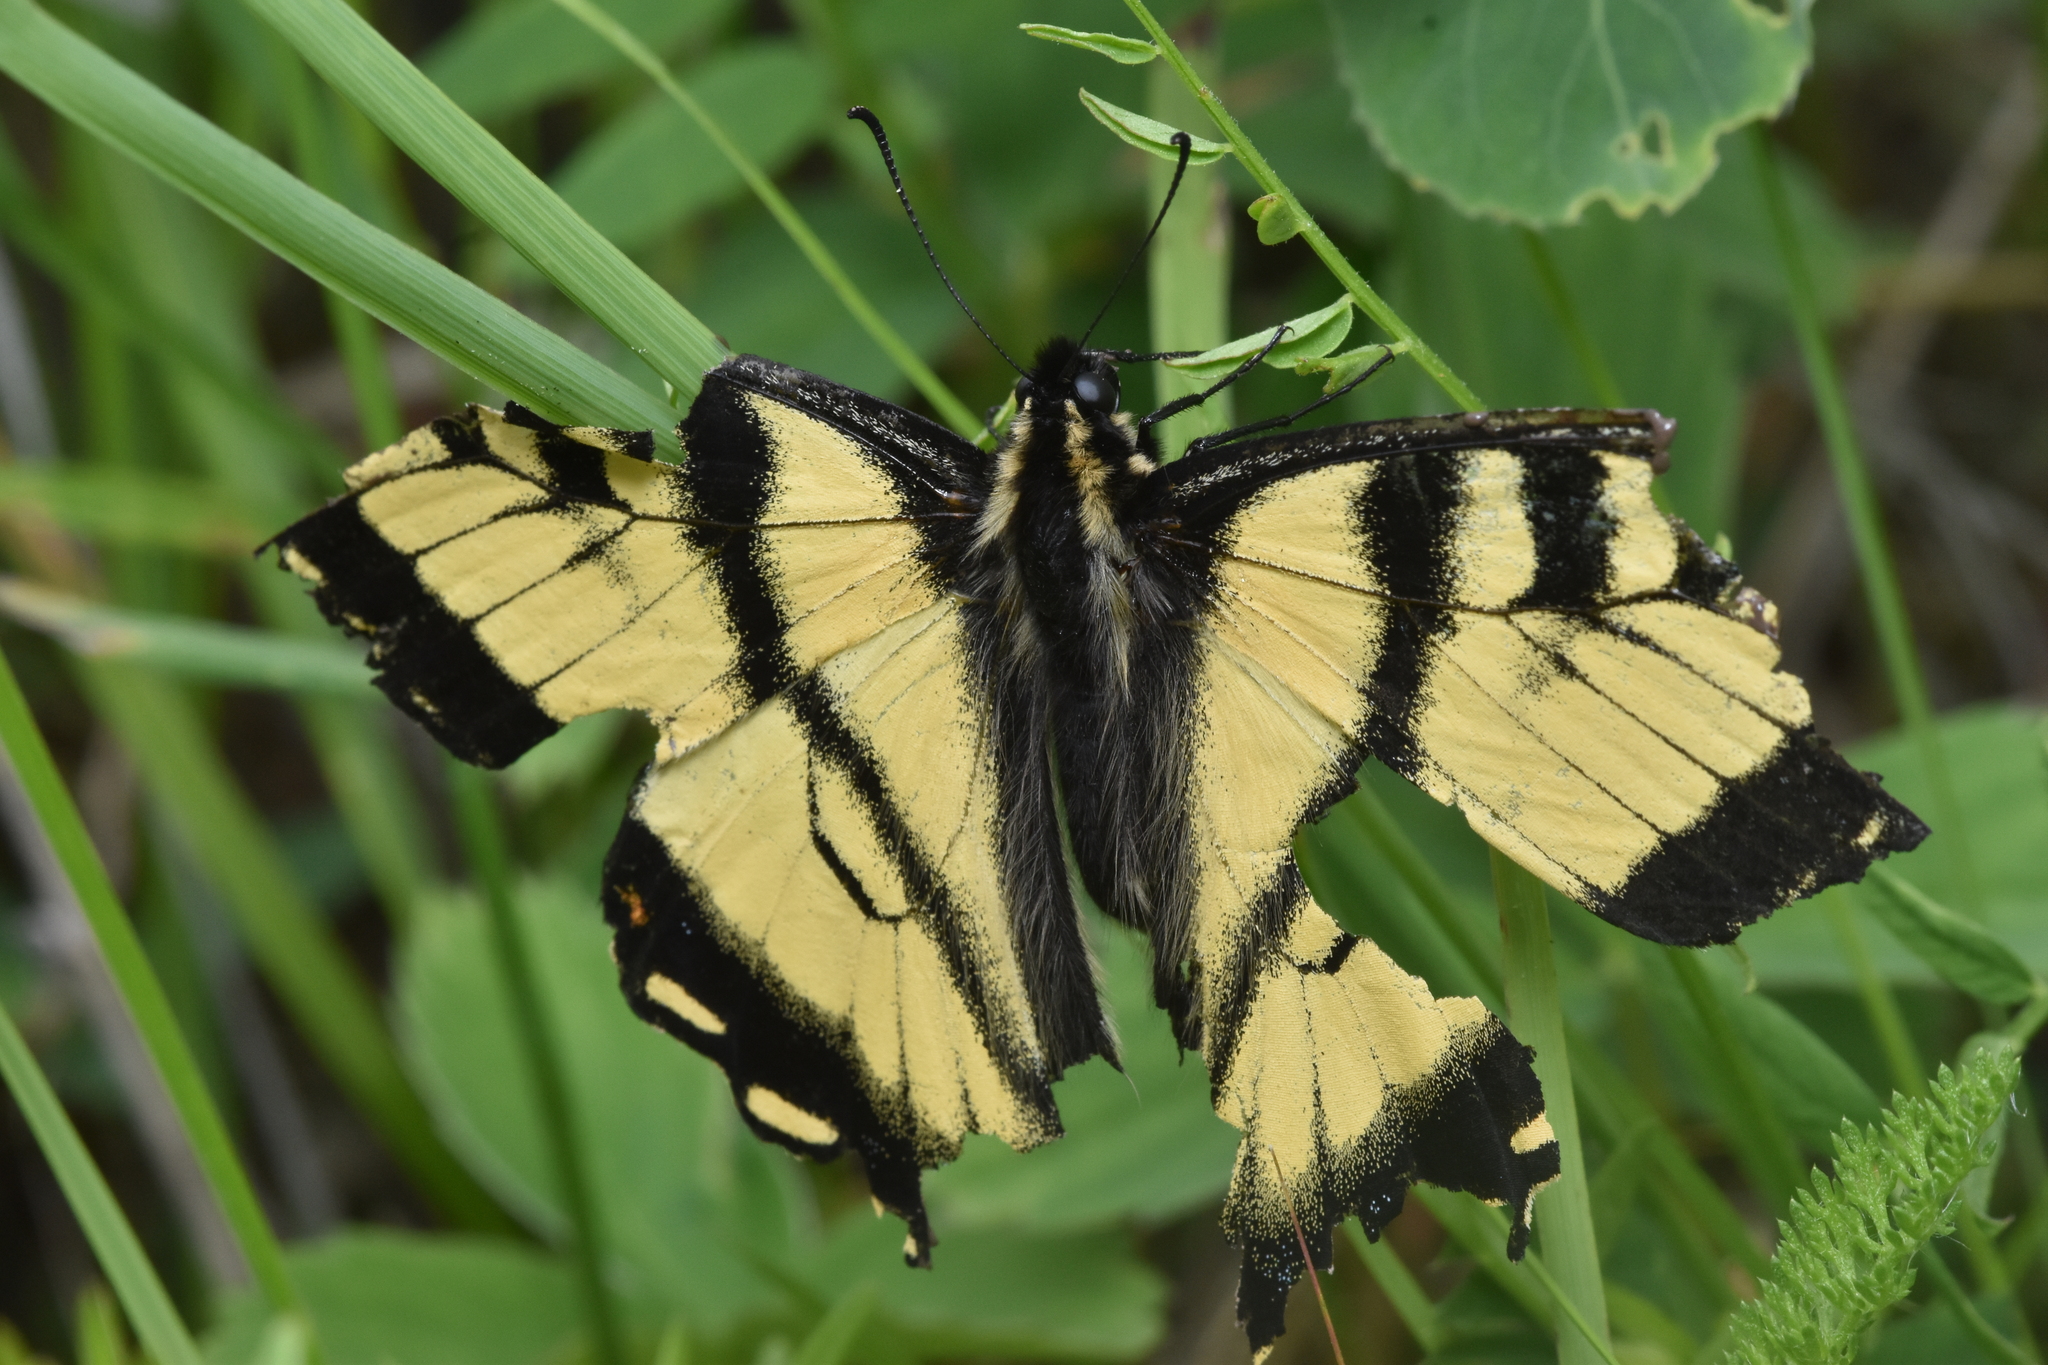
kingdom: Animalia
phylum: Arthropoda
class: Insecta
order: Lepidoptera
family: Papilionidae
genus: Papilio
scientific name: Papilio canadensis
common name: Canadian tiger swallowtail
